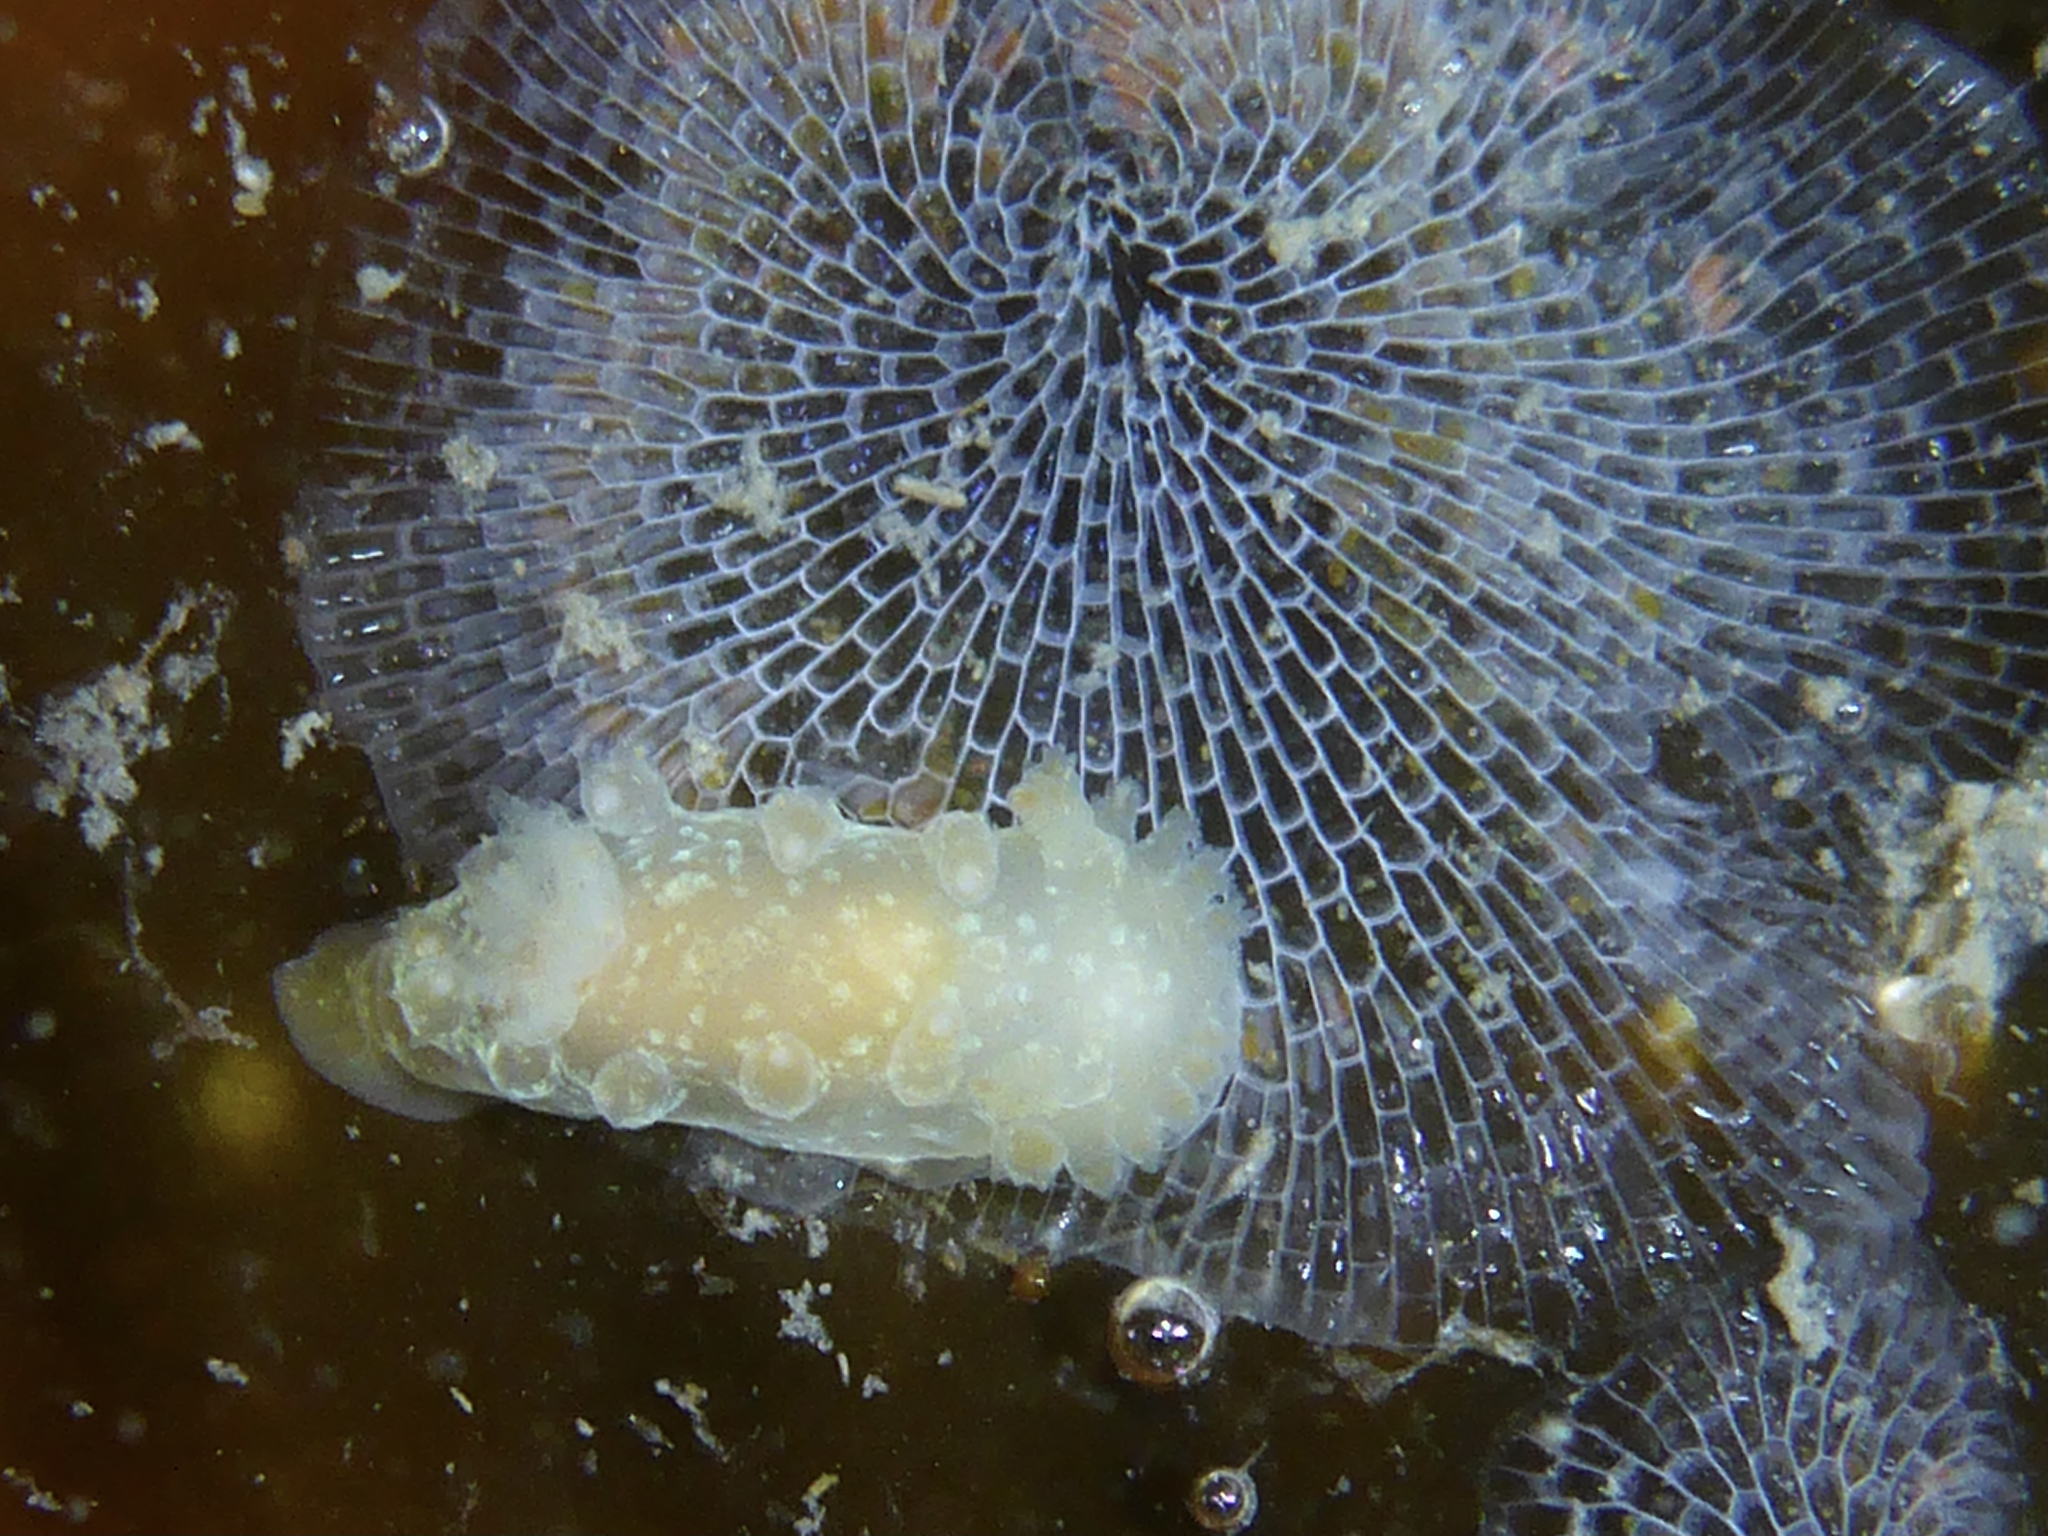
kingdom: Animalia
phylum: Mollusca
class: Gastropoda
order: Nudibranchia
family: Polyceridae
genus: Triopha
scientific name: Triopha maculata
